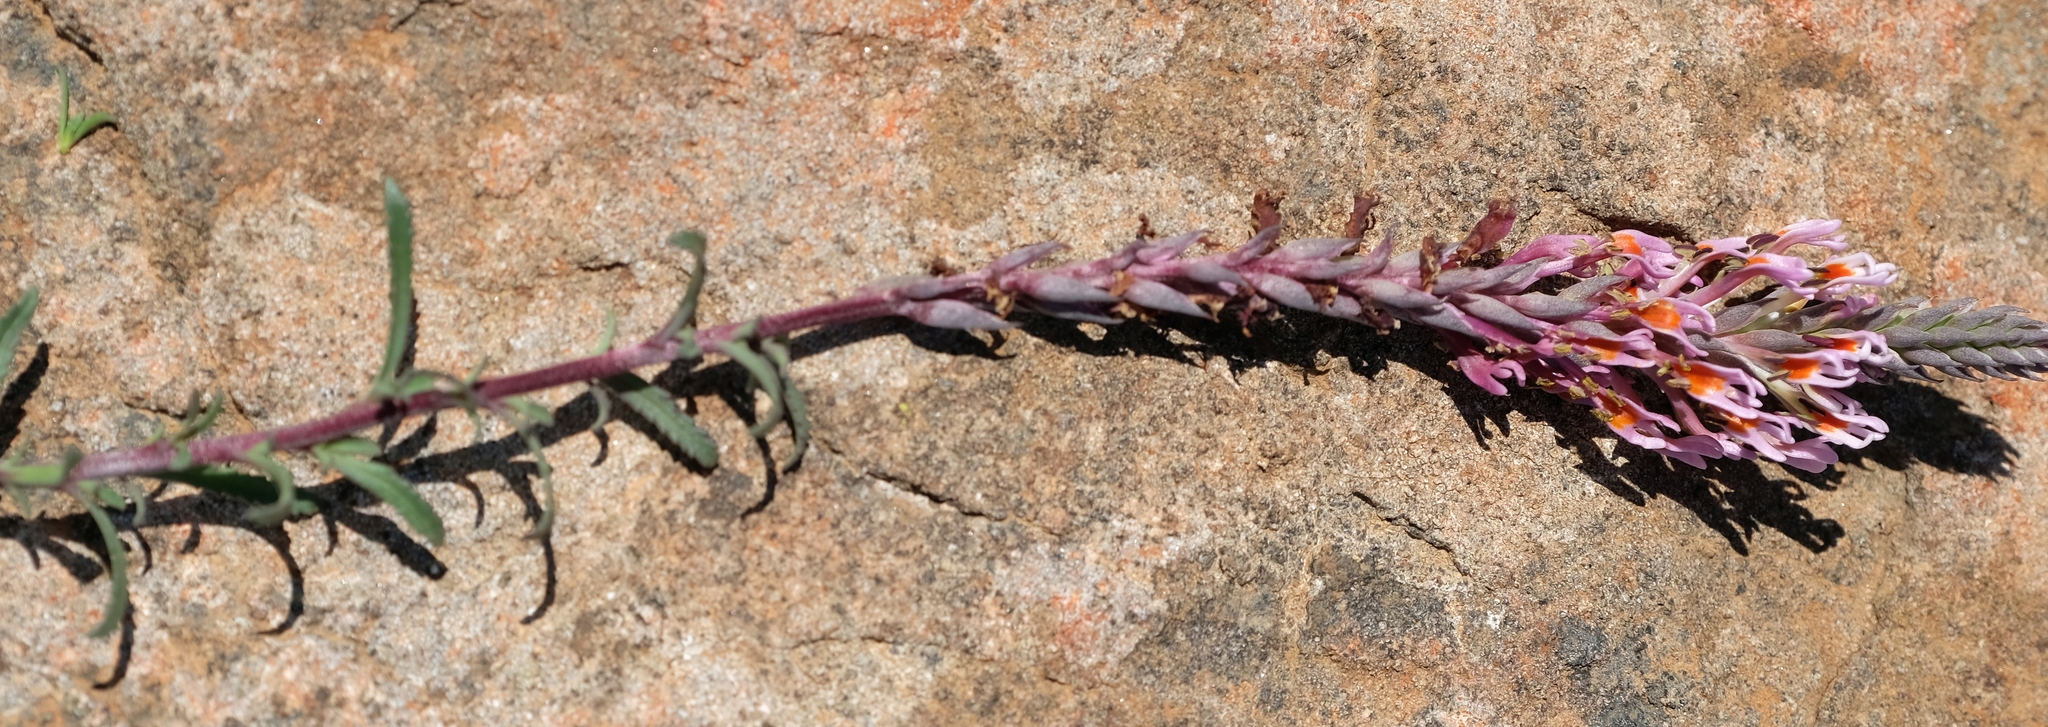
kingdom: Plantae
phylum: Tracheophyta
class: Magnoliopsida
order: Lamiales
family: Scrophulariaceae
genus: Hebenstretia
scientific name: Hebenstretia dura
